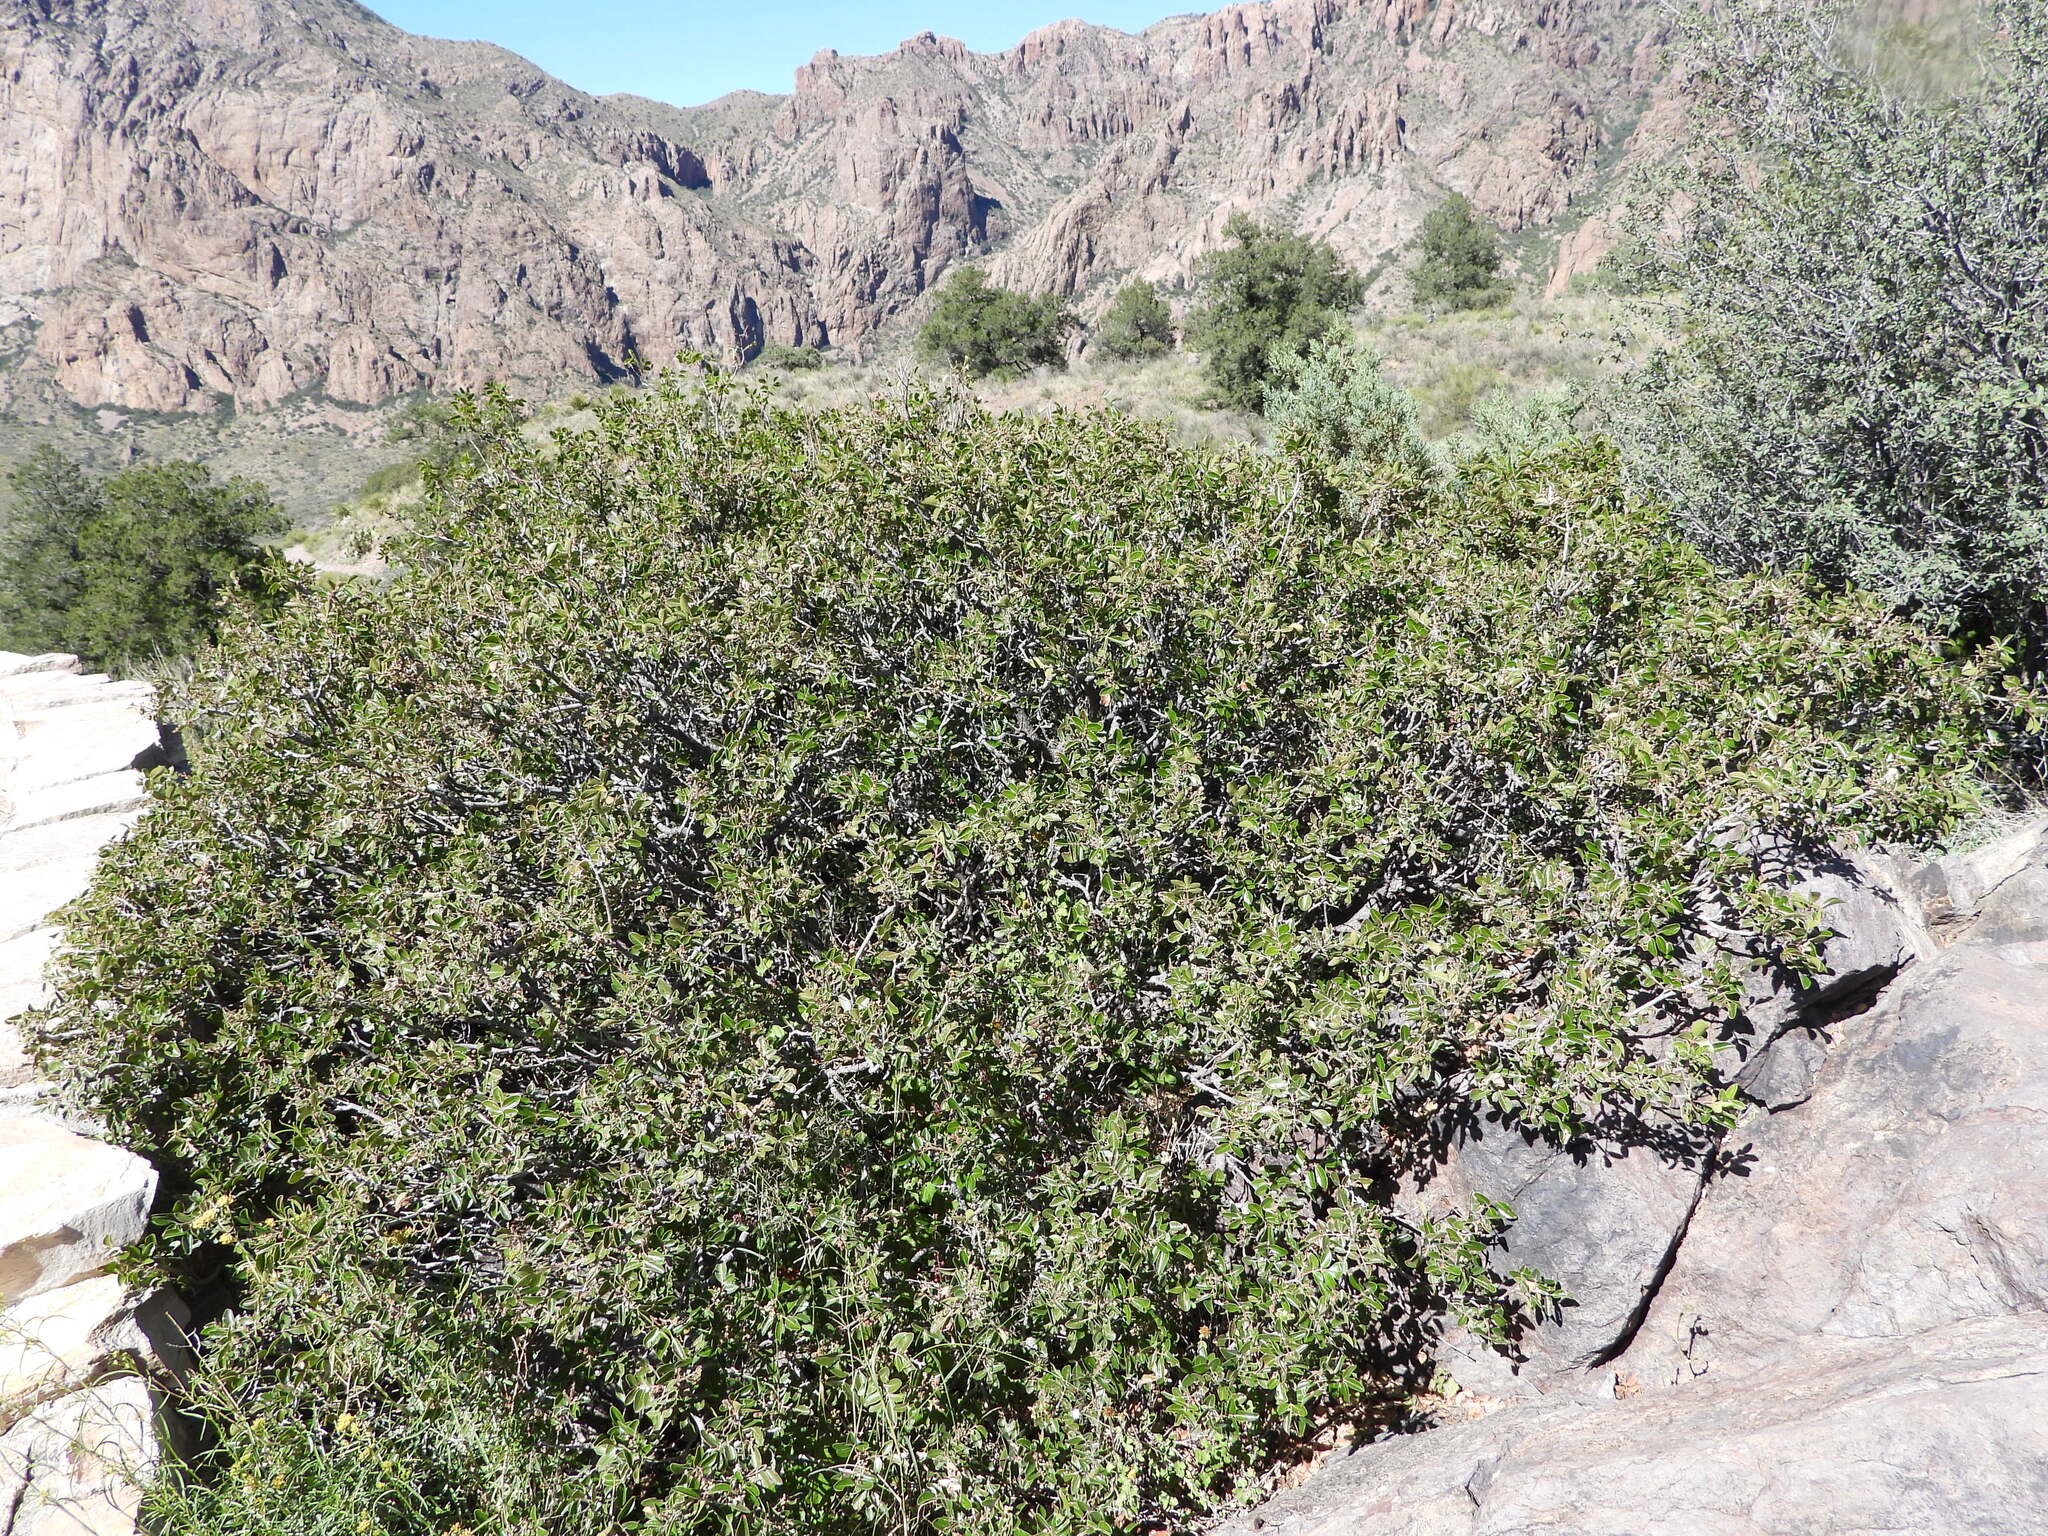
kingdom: Plantae
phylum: Tracheophyta
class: Magnoliopsida
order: Sapindales
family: Anacardiaceae
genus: Rhus
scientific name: Rhus virens
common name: Evergreen sumac
